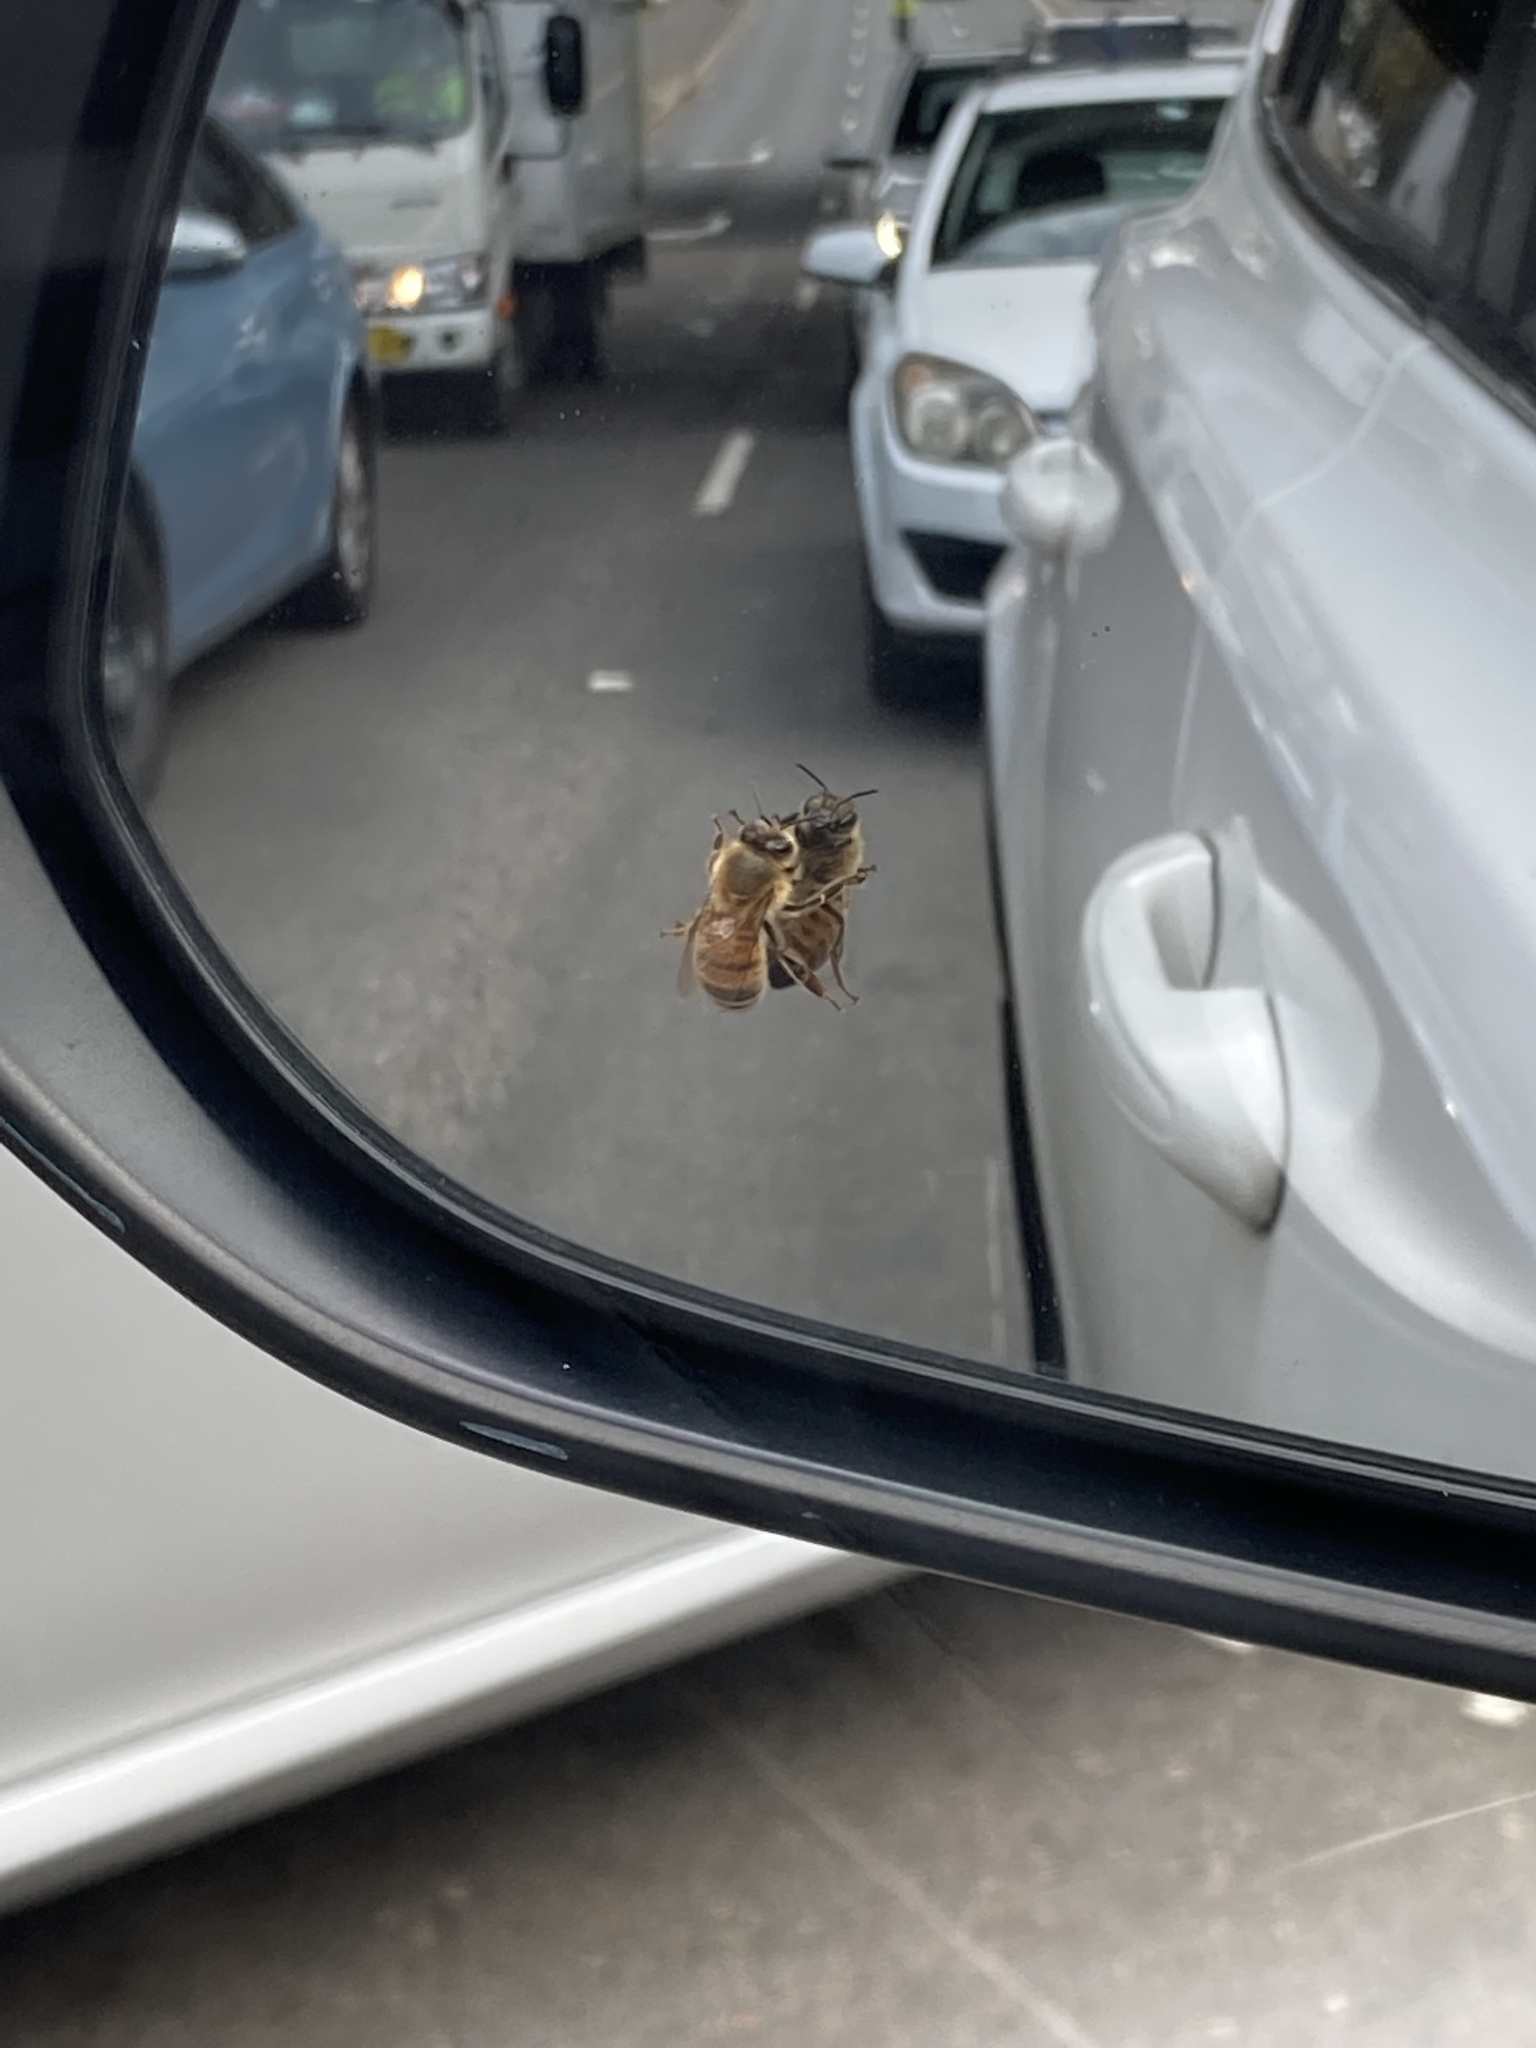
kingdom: Animalia
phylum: Arthropoda
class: Insecta
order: Hymenoptera
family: Apidae
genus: Apis
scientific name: Apis mellifera
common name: Honey bee
